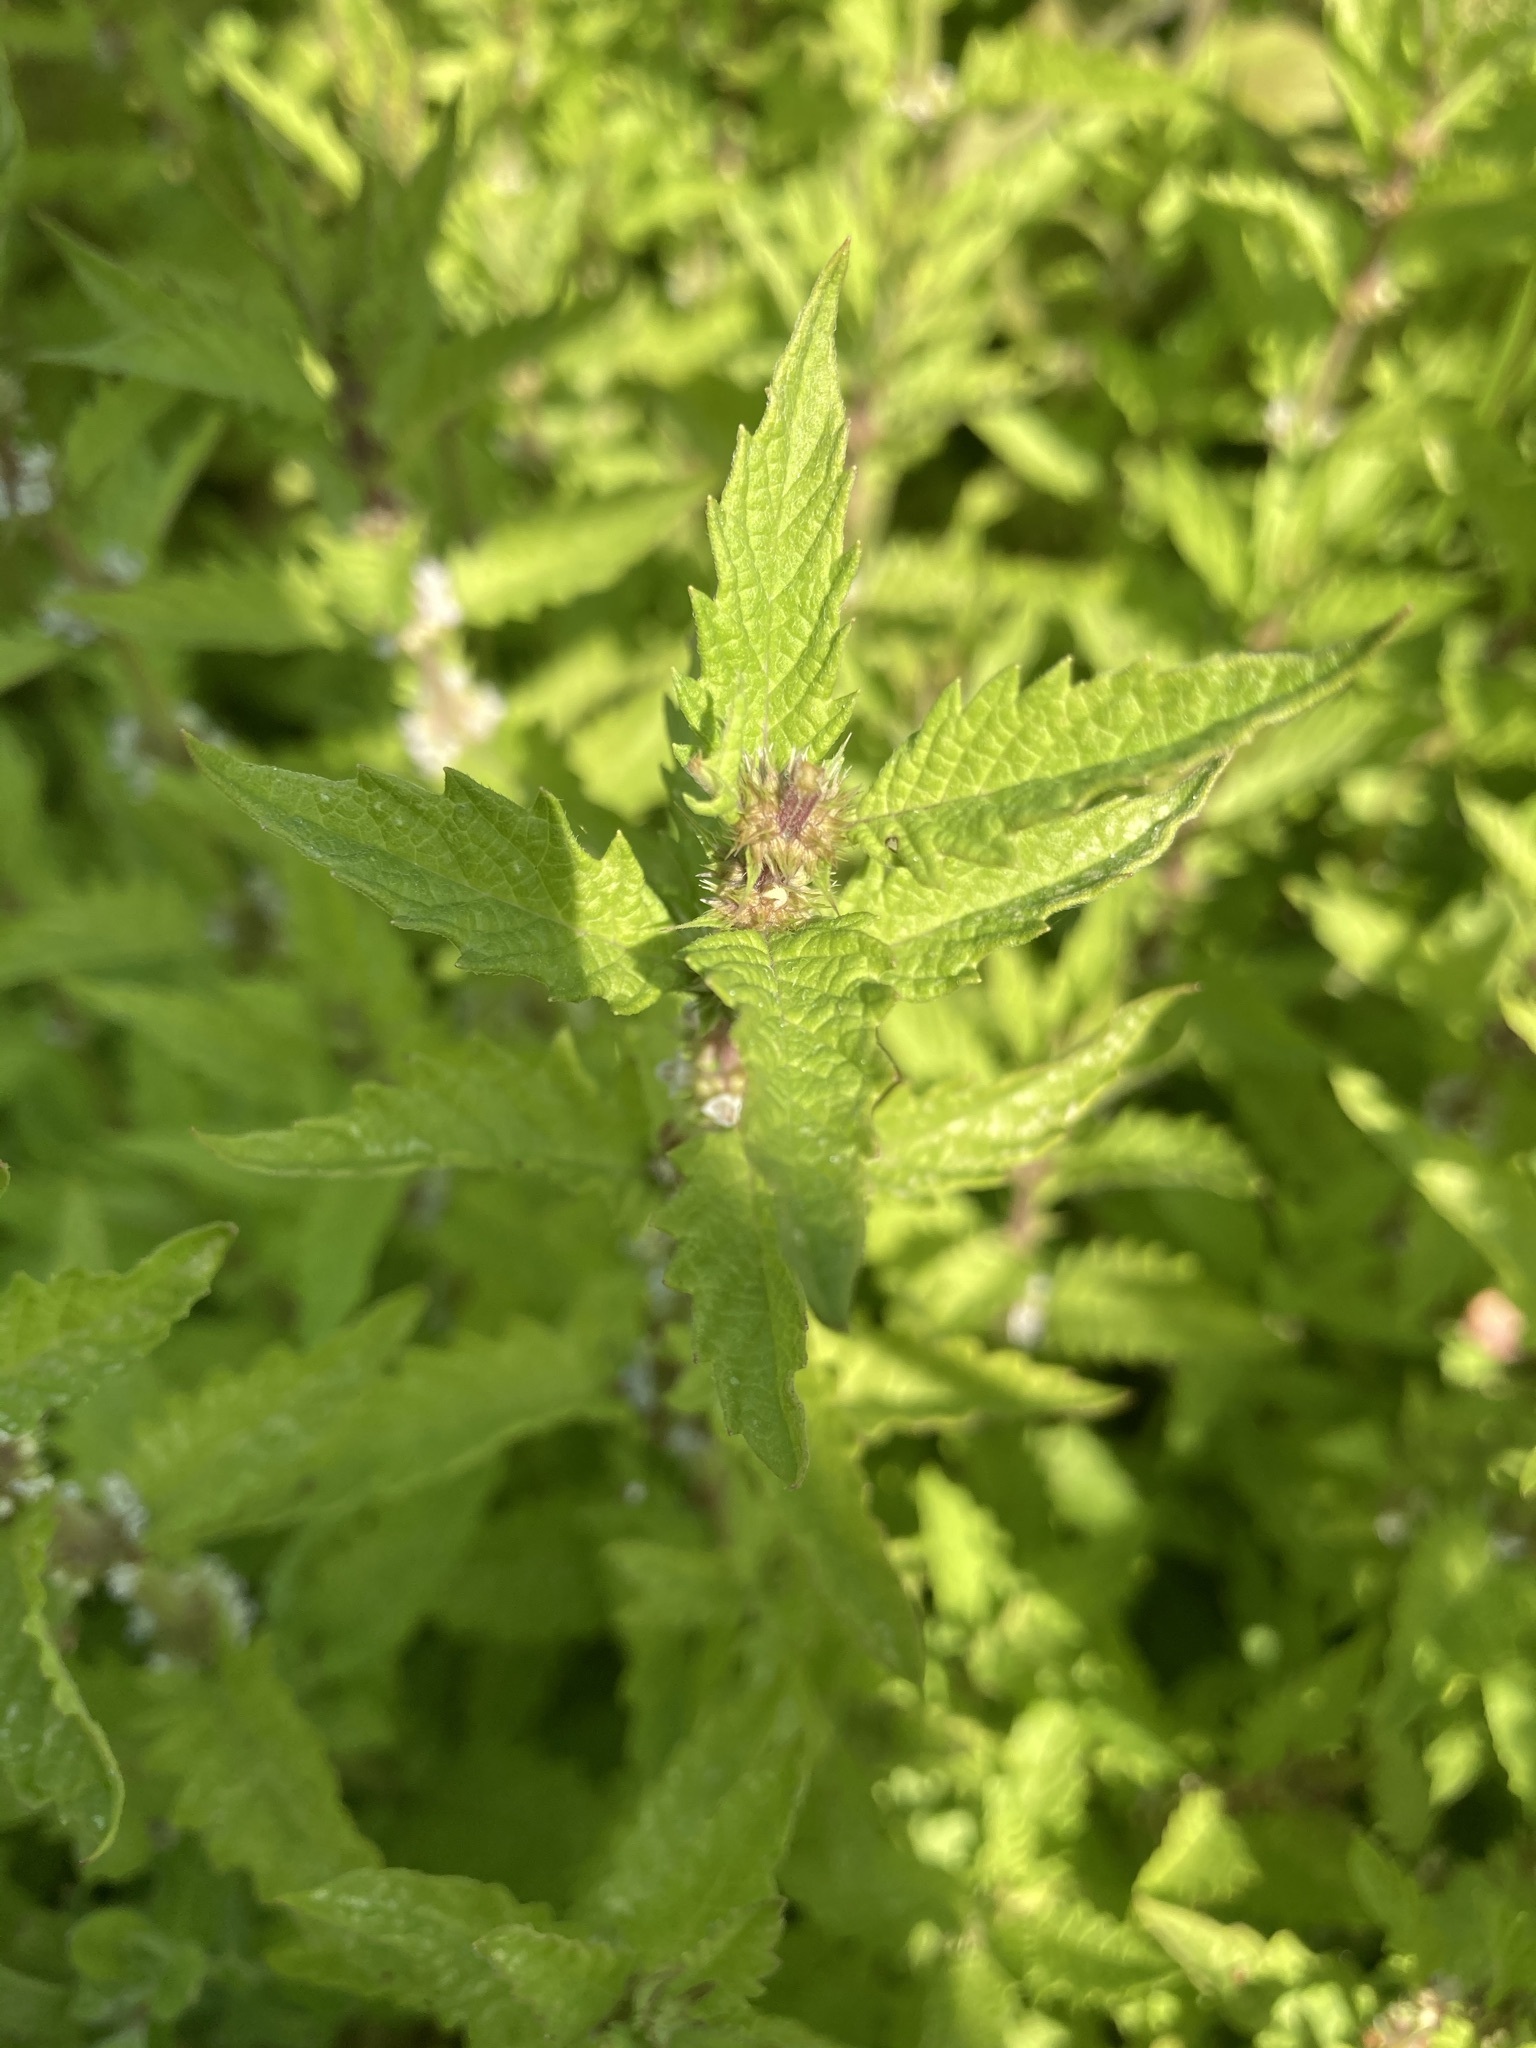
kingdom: Plantae
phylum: Tracheophyta
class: Magnoliopsida
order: Lamiales
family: Lamiaceae
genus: Lycopus
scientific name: Lycopus europaeus
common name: European bugleweed
